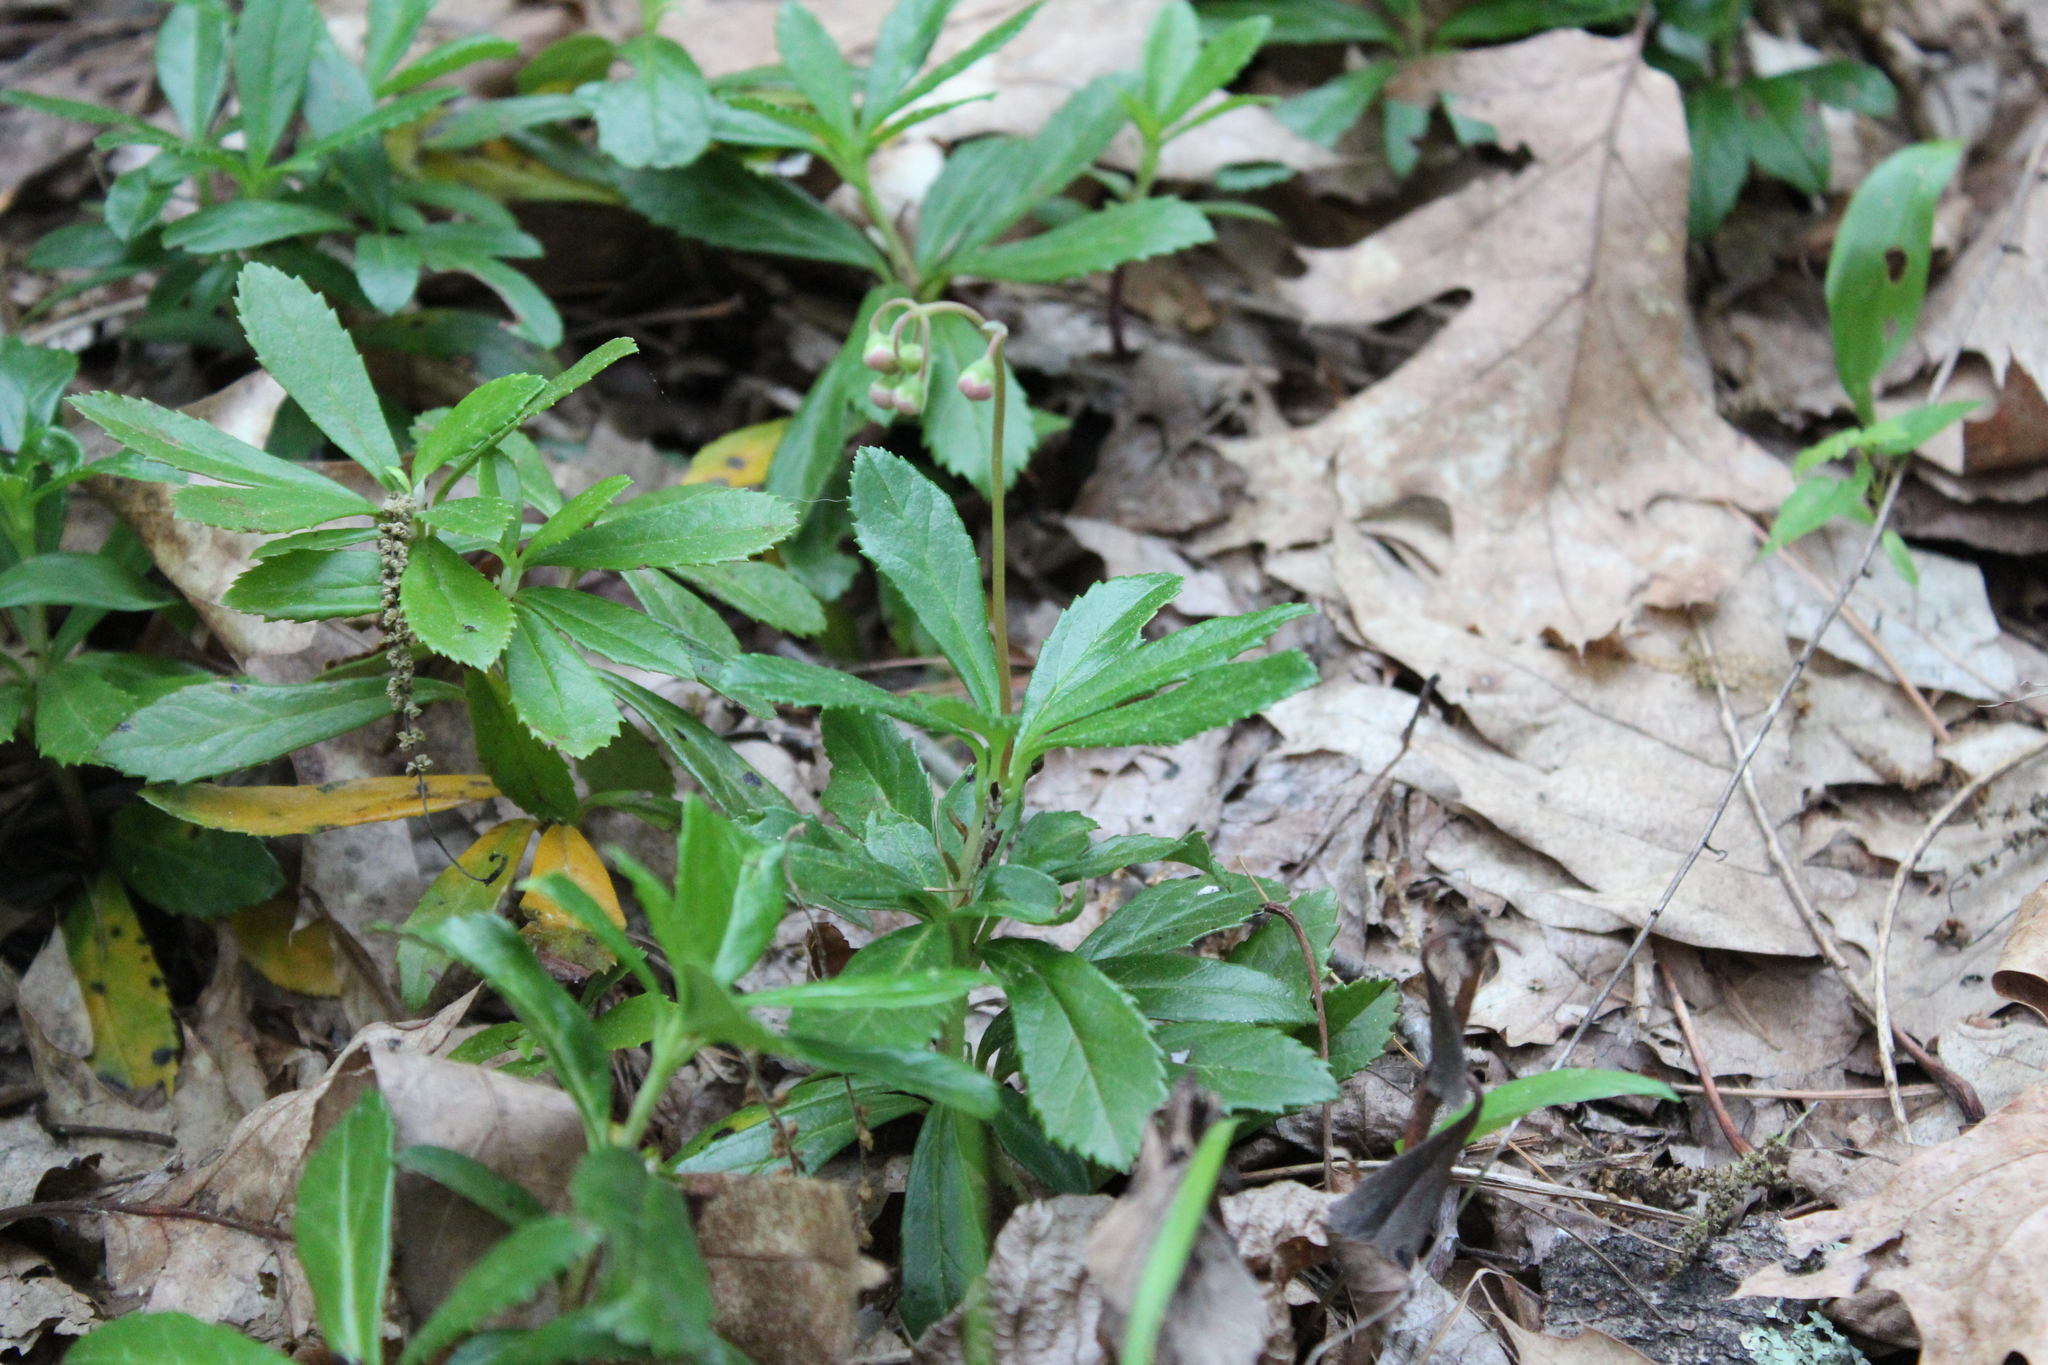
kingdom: Plantae
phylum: Tracheophyta
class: Magnoliopsida
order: Ericales
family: Ericaceae
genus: Chimaphila
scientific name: Chimaphila umbellata
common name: Pipsissewa
